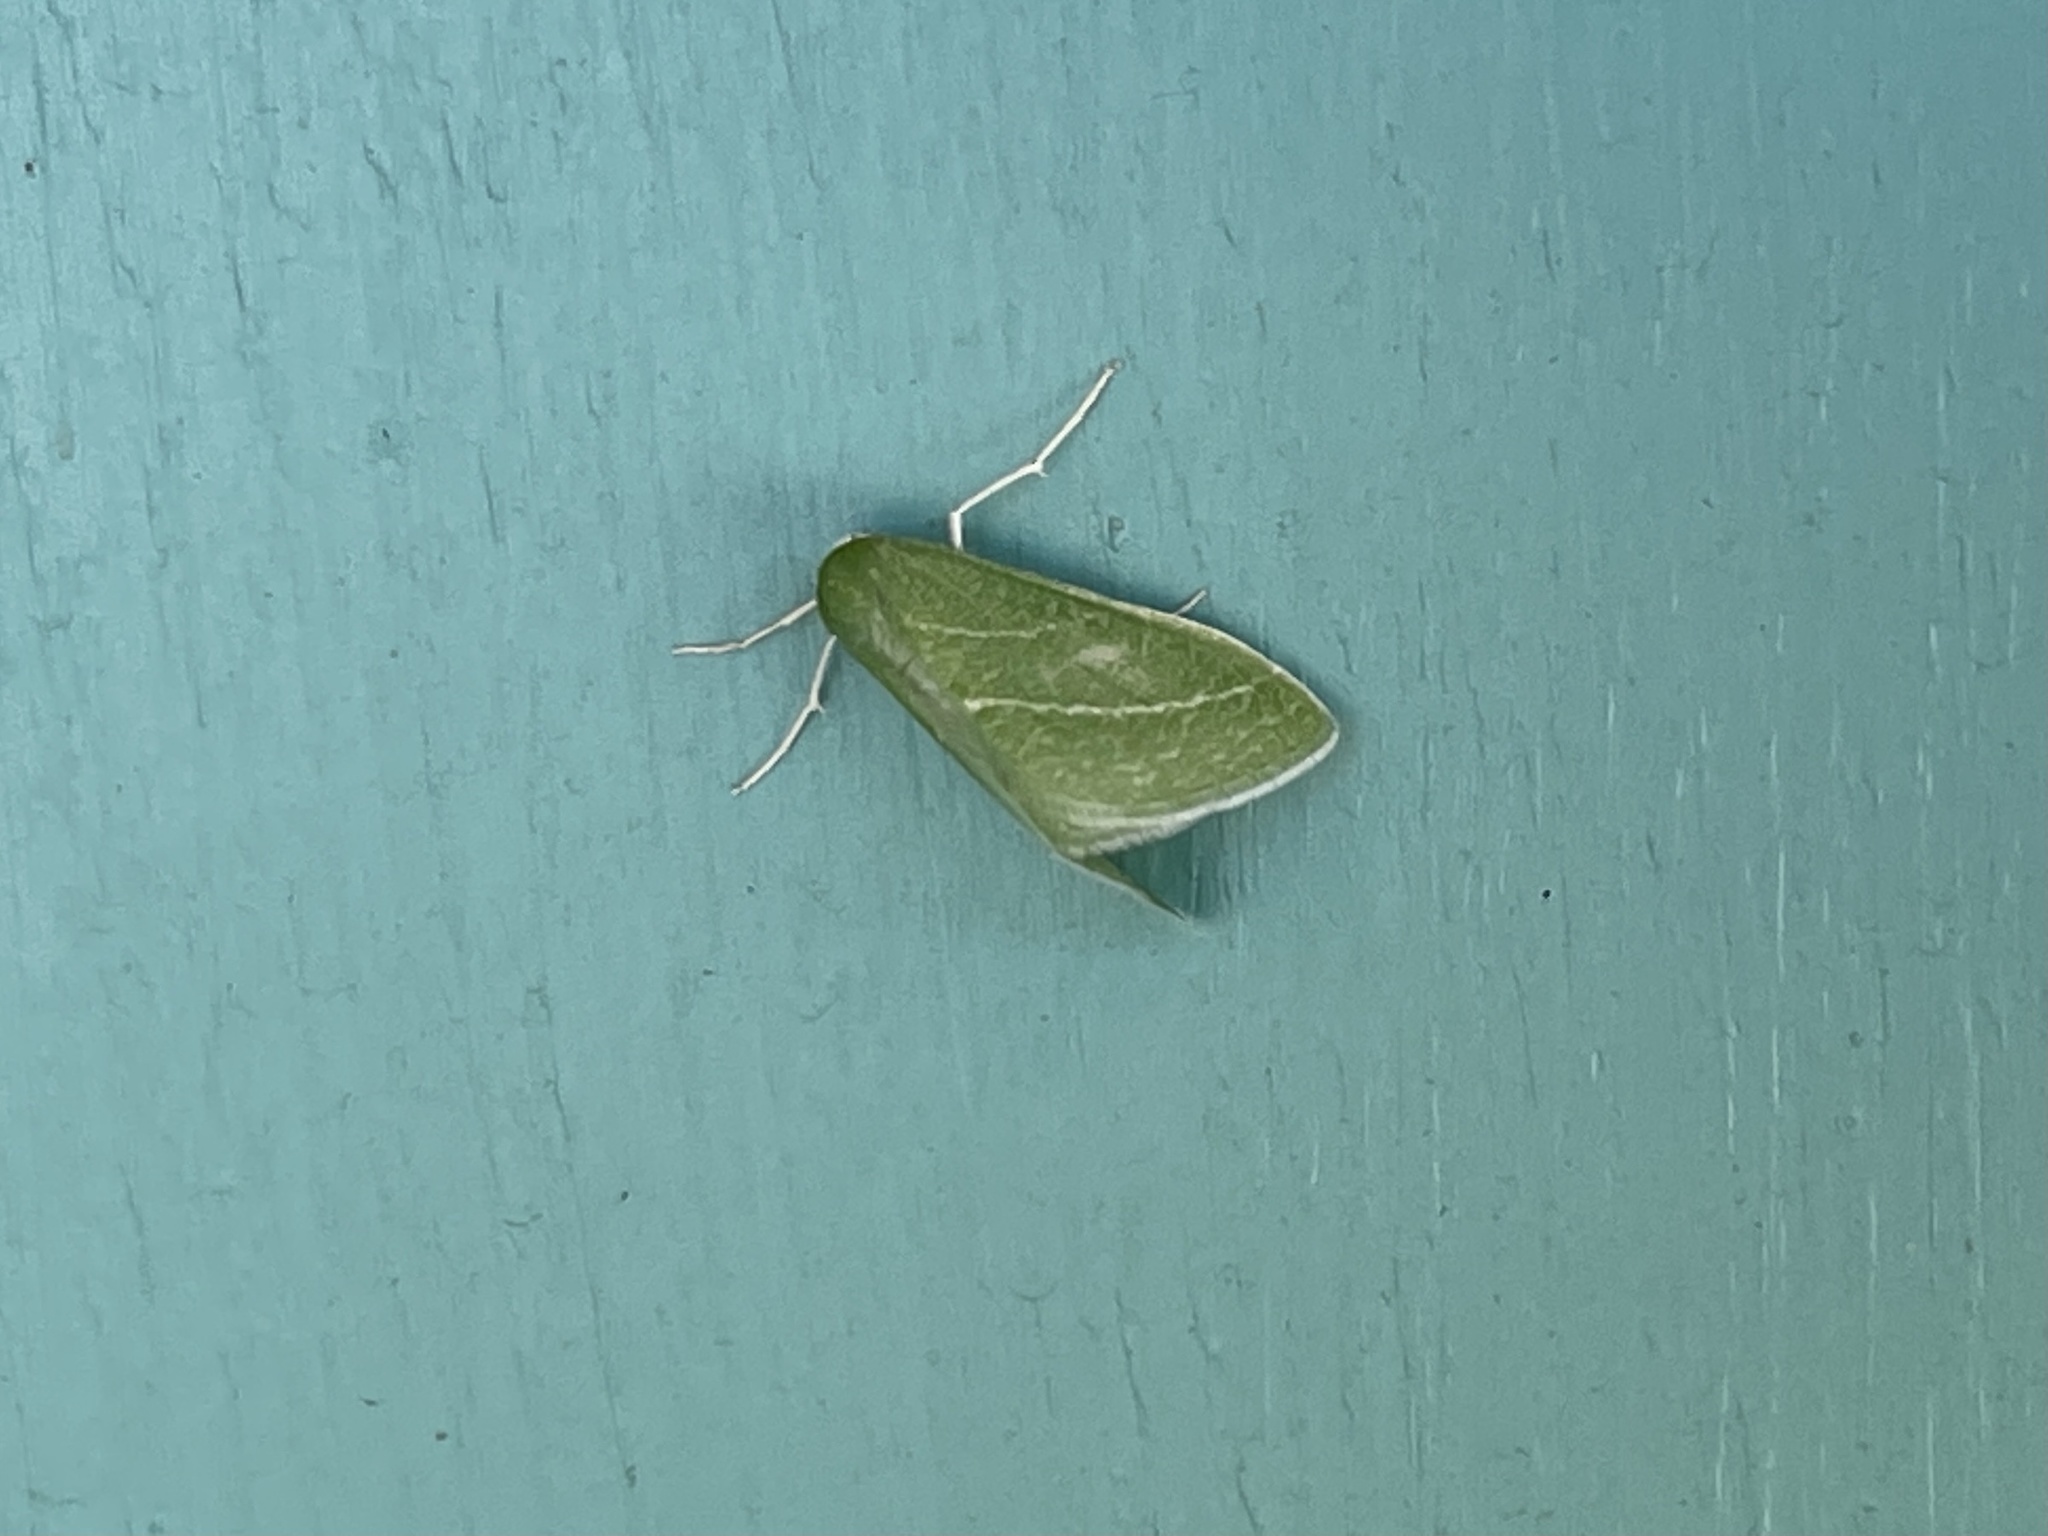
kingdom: Animalia
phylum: Arthropoda
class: Insecta
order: Lepidoptera
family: Geometridae
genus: Nemoria
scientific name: Nemoria obliqua
